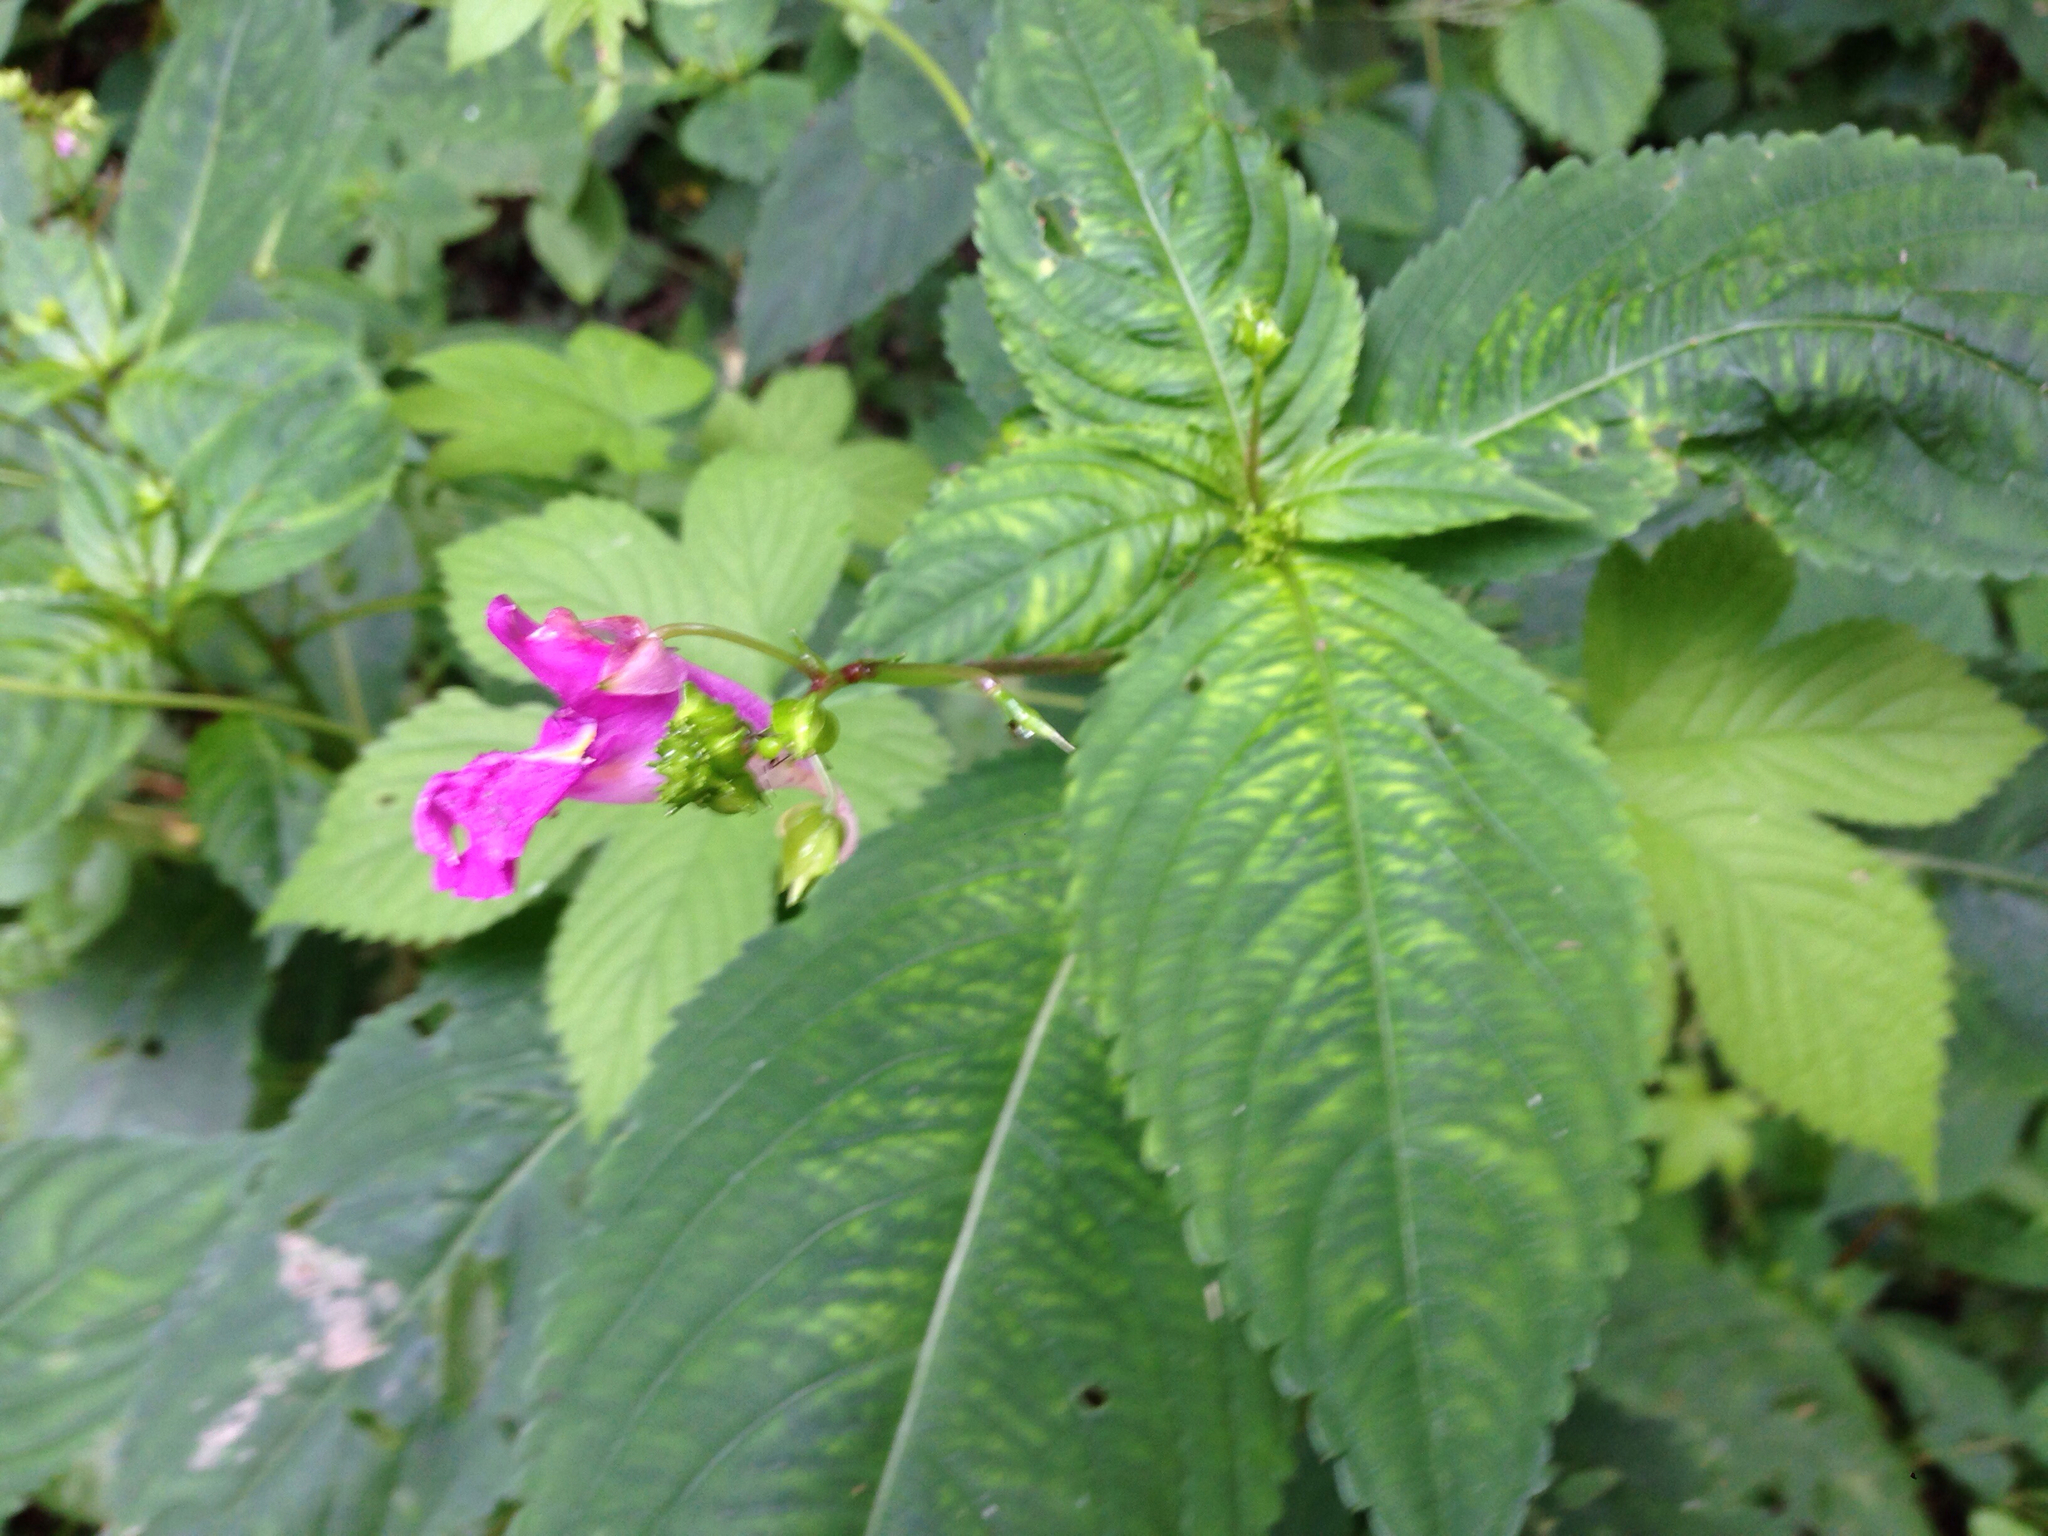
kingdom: Plantae
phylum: Tracheophyta
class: Magnoliopsida
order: Ericales
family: Balsaminaceae
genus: Impatiens
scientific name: Impatiens textorii
